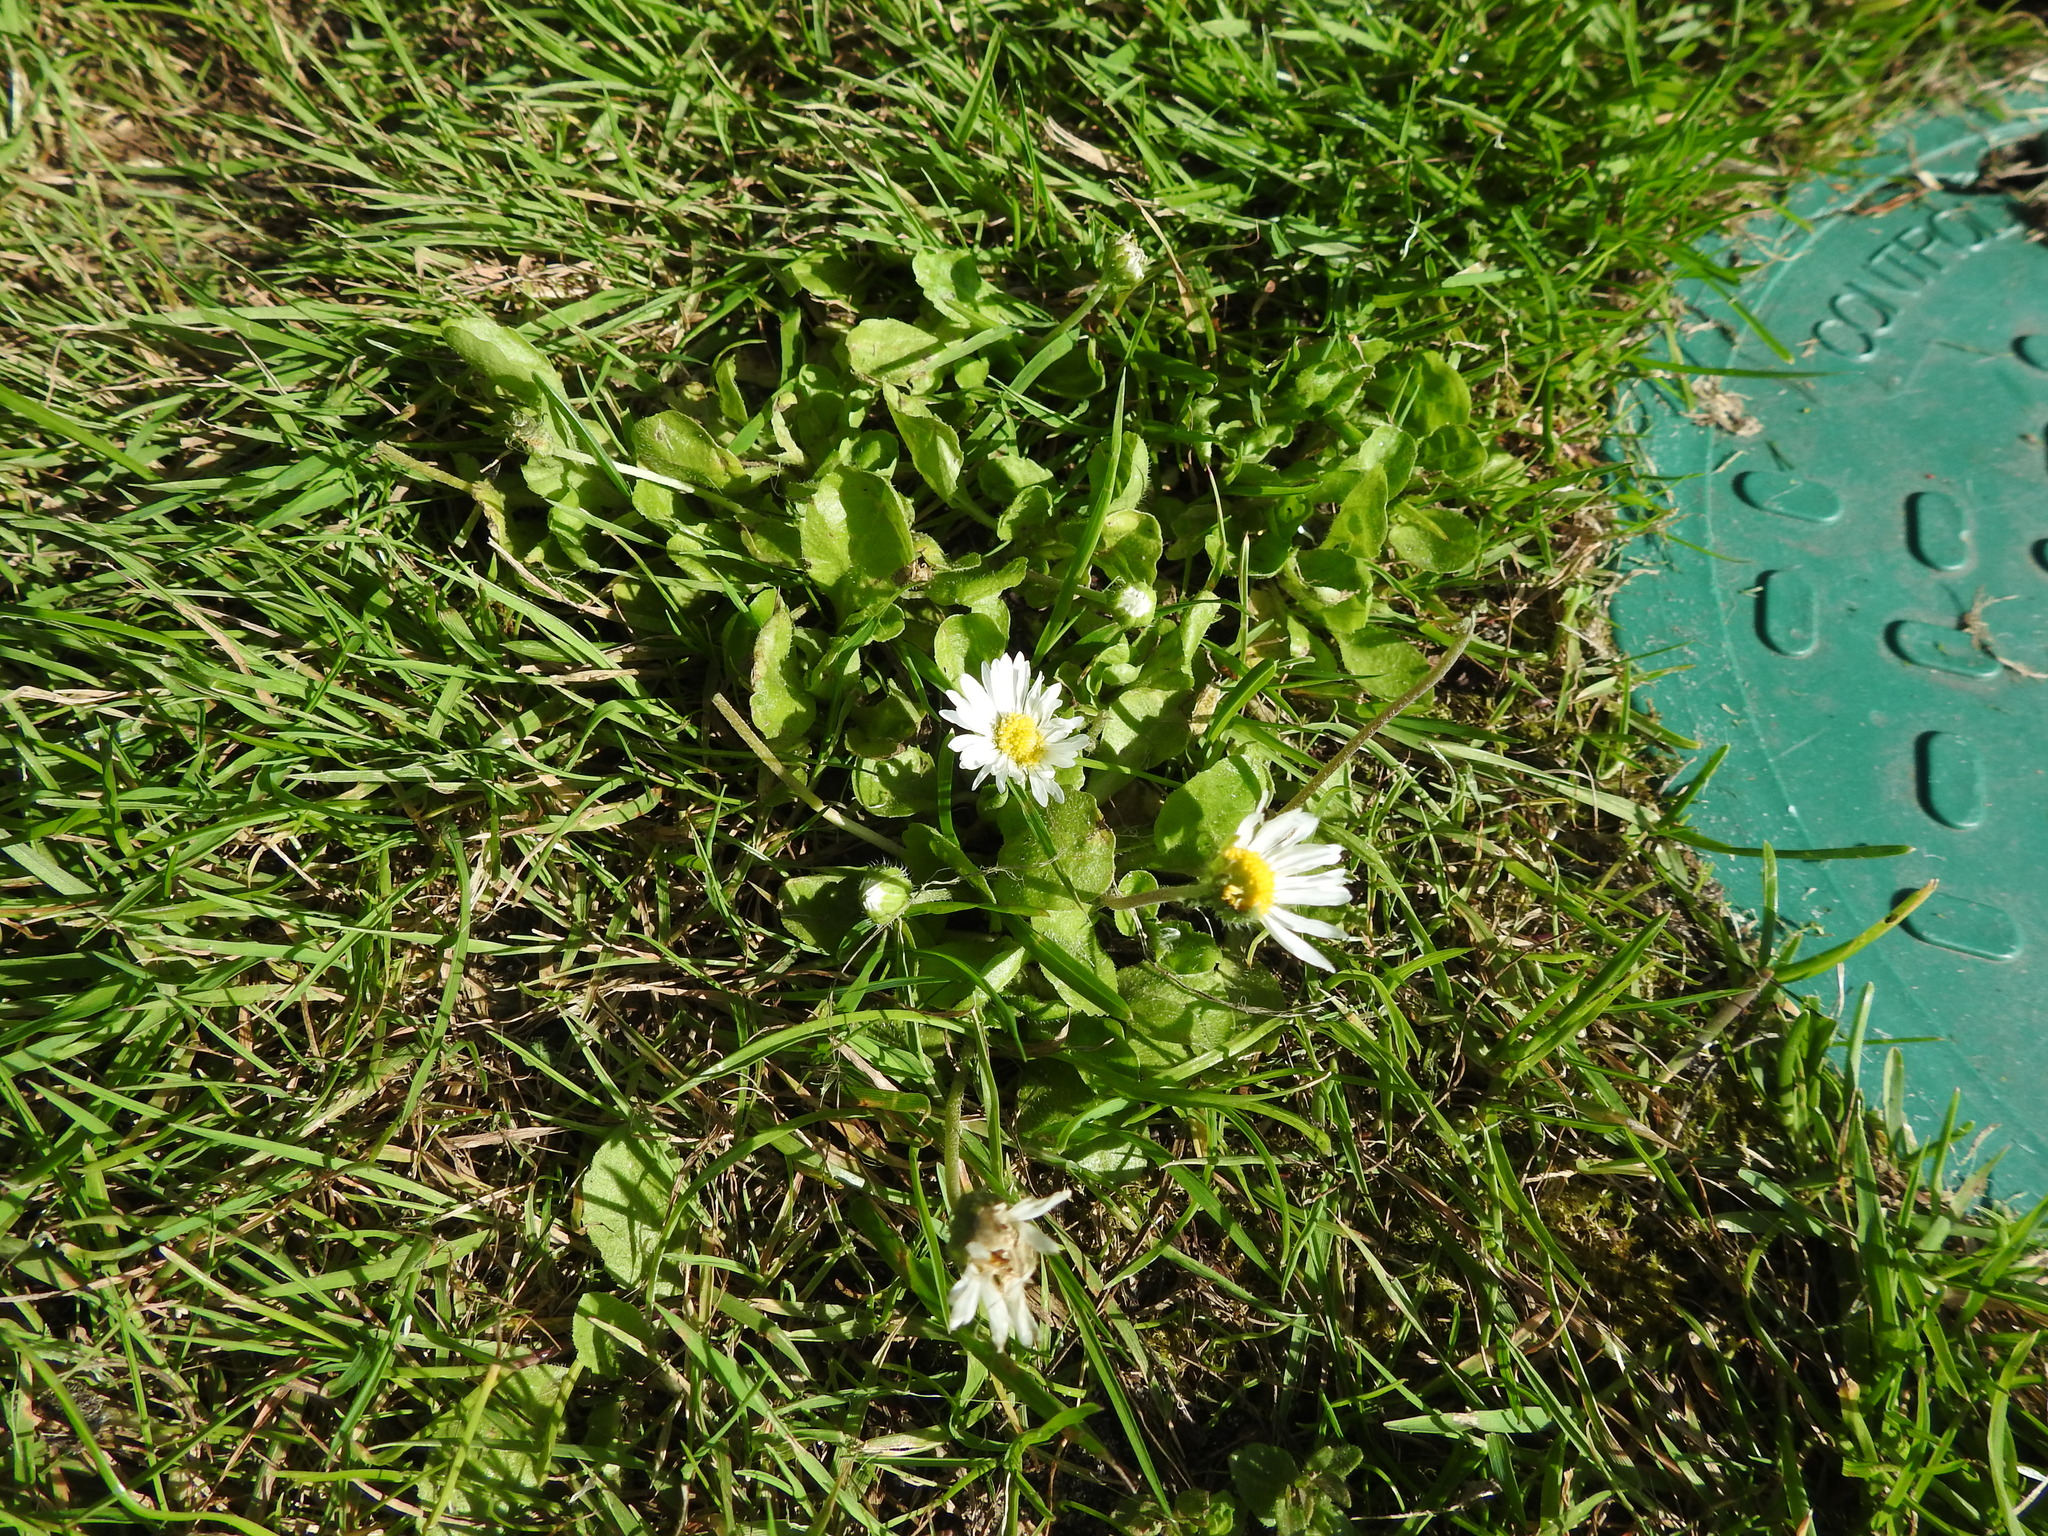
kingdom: Plantae
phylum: Tracheophyta
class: Magnoliopsida
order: Asterales
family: Asteraceae
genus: Bellis
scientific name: Bellis perennis
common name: Lawndaisy
